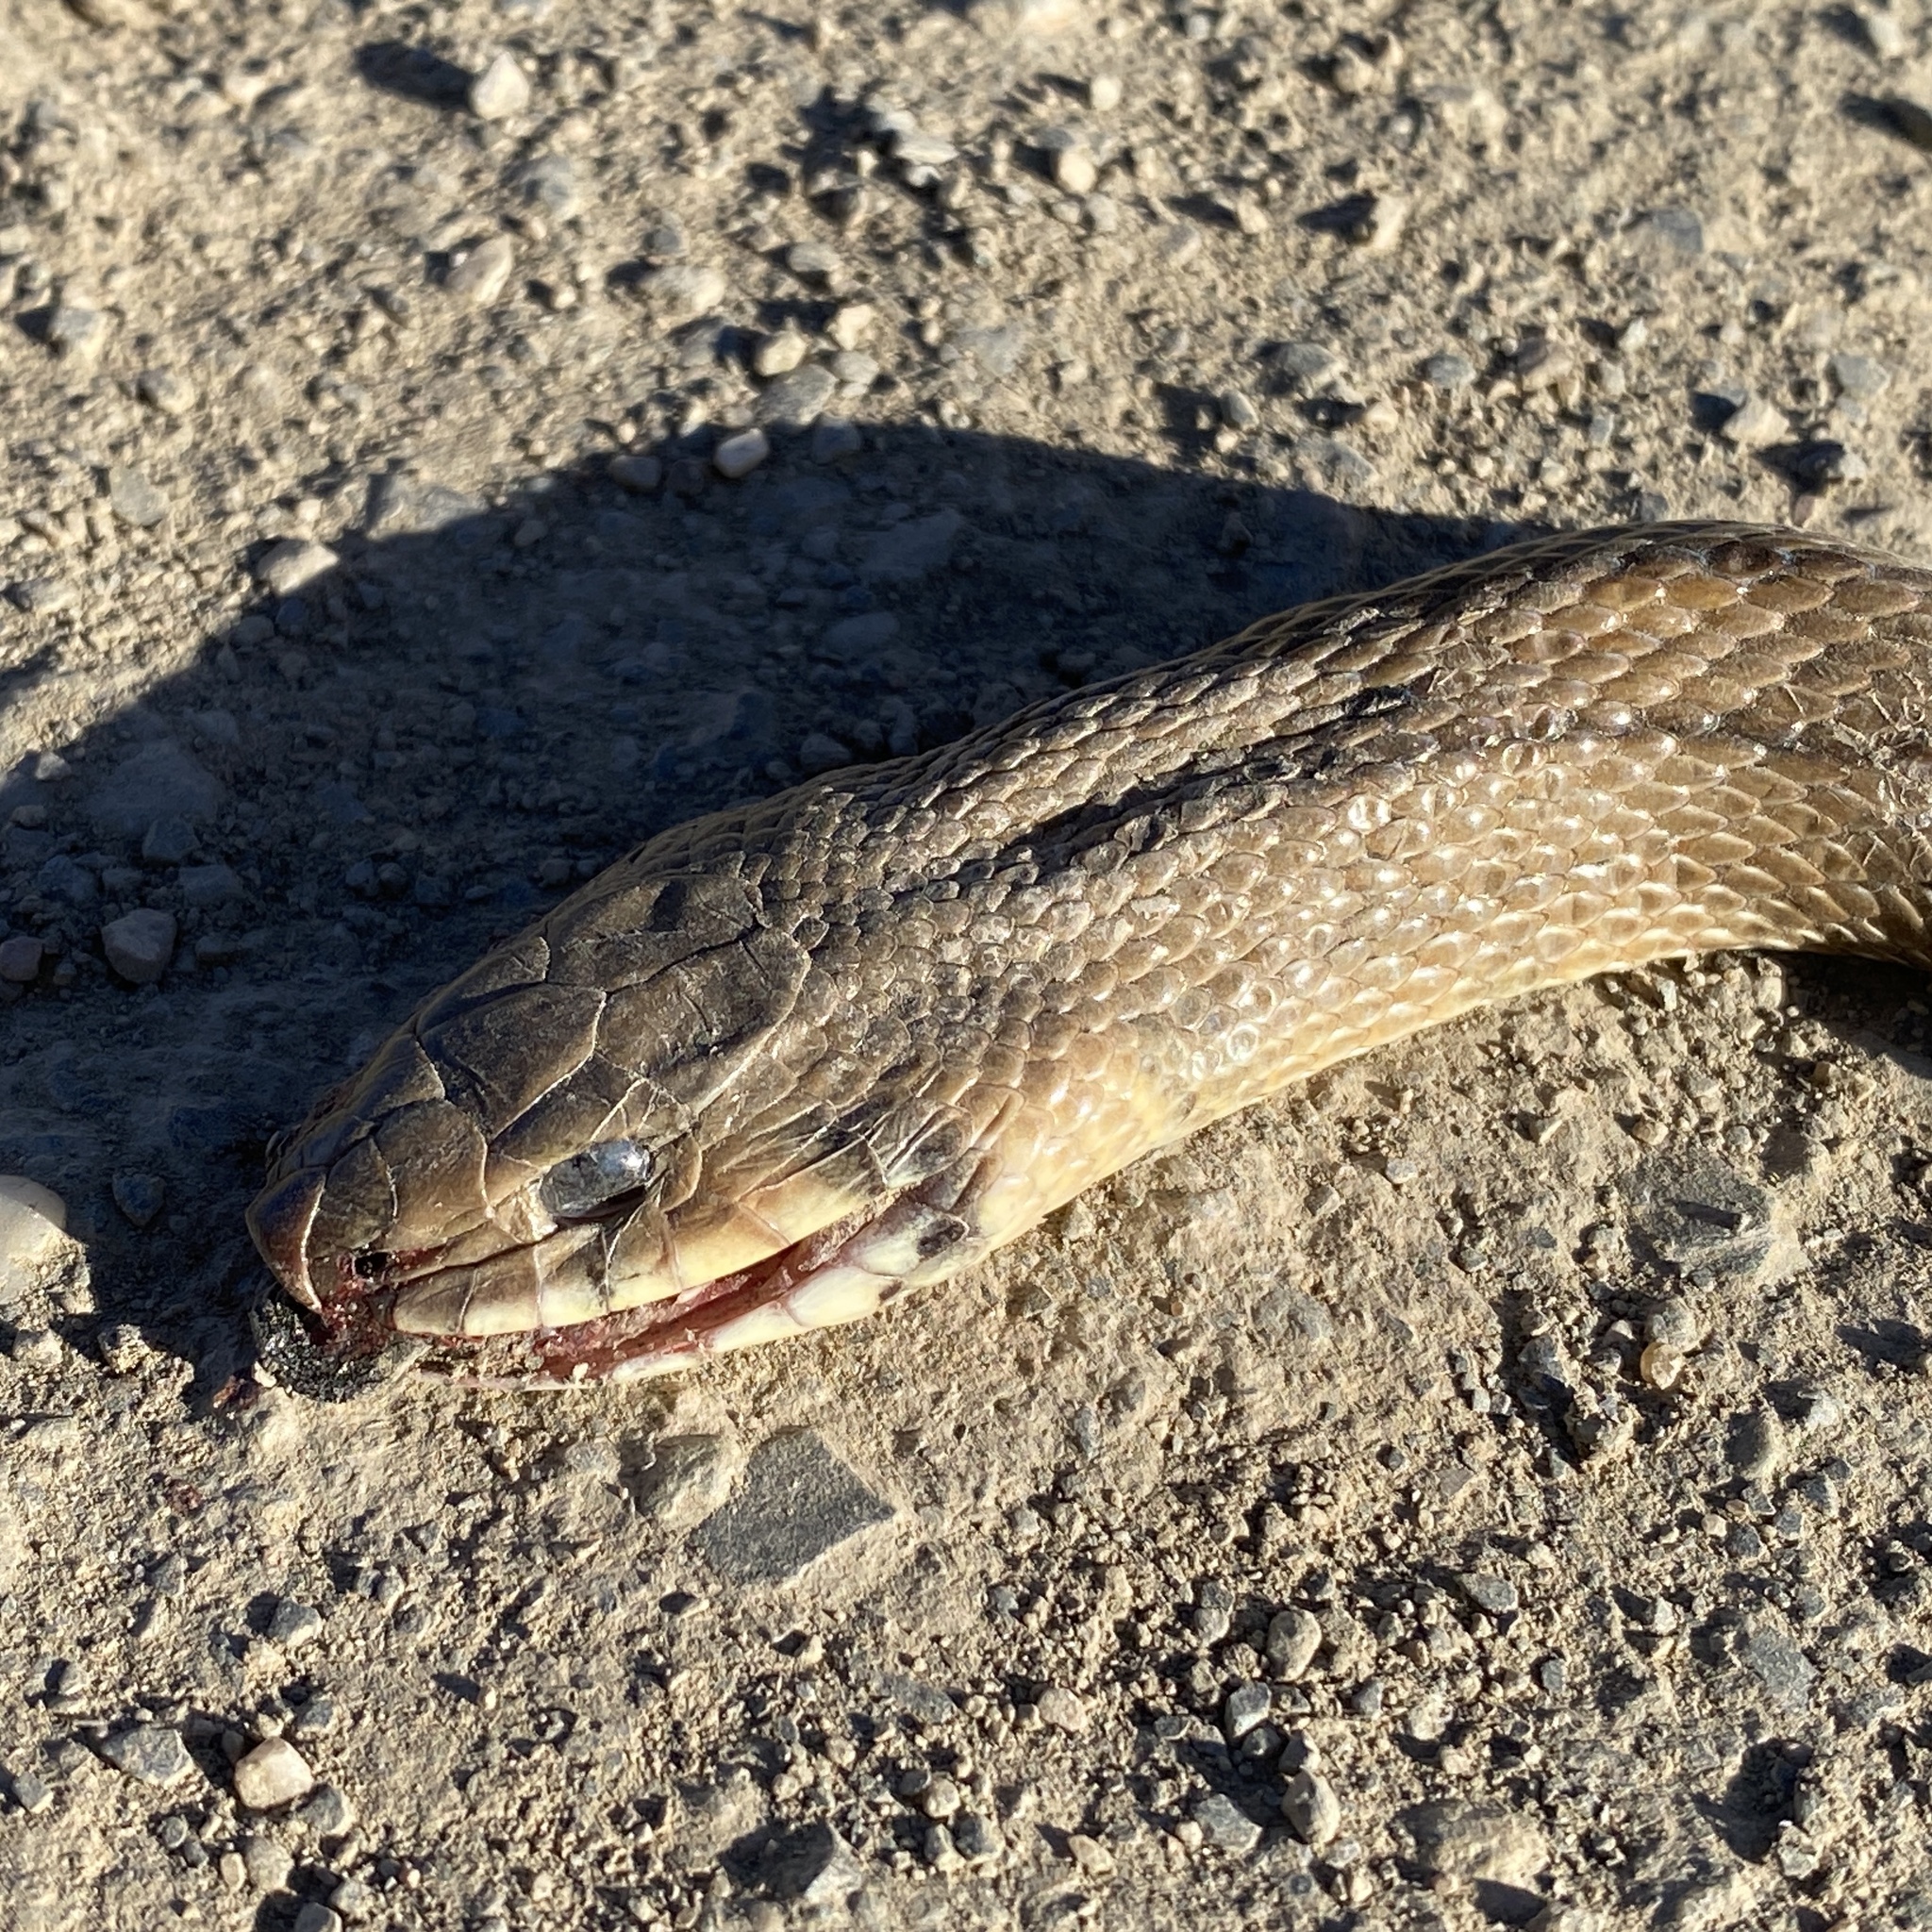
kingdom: Animalia
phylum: Chordata
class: Squamata
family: Colubridae
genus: Zamenis
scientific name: Zamenis scalaris
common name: Ladder snakes
